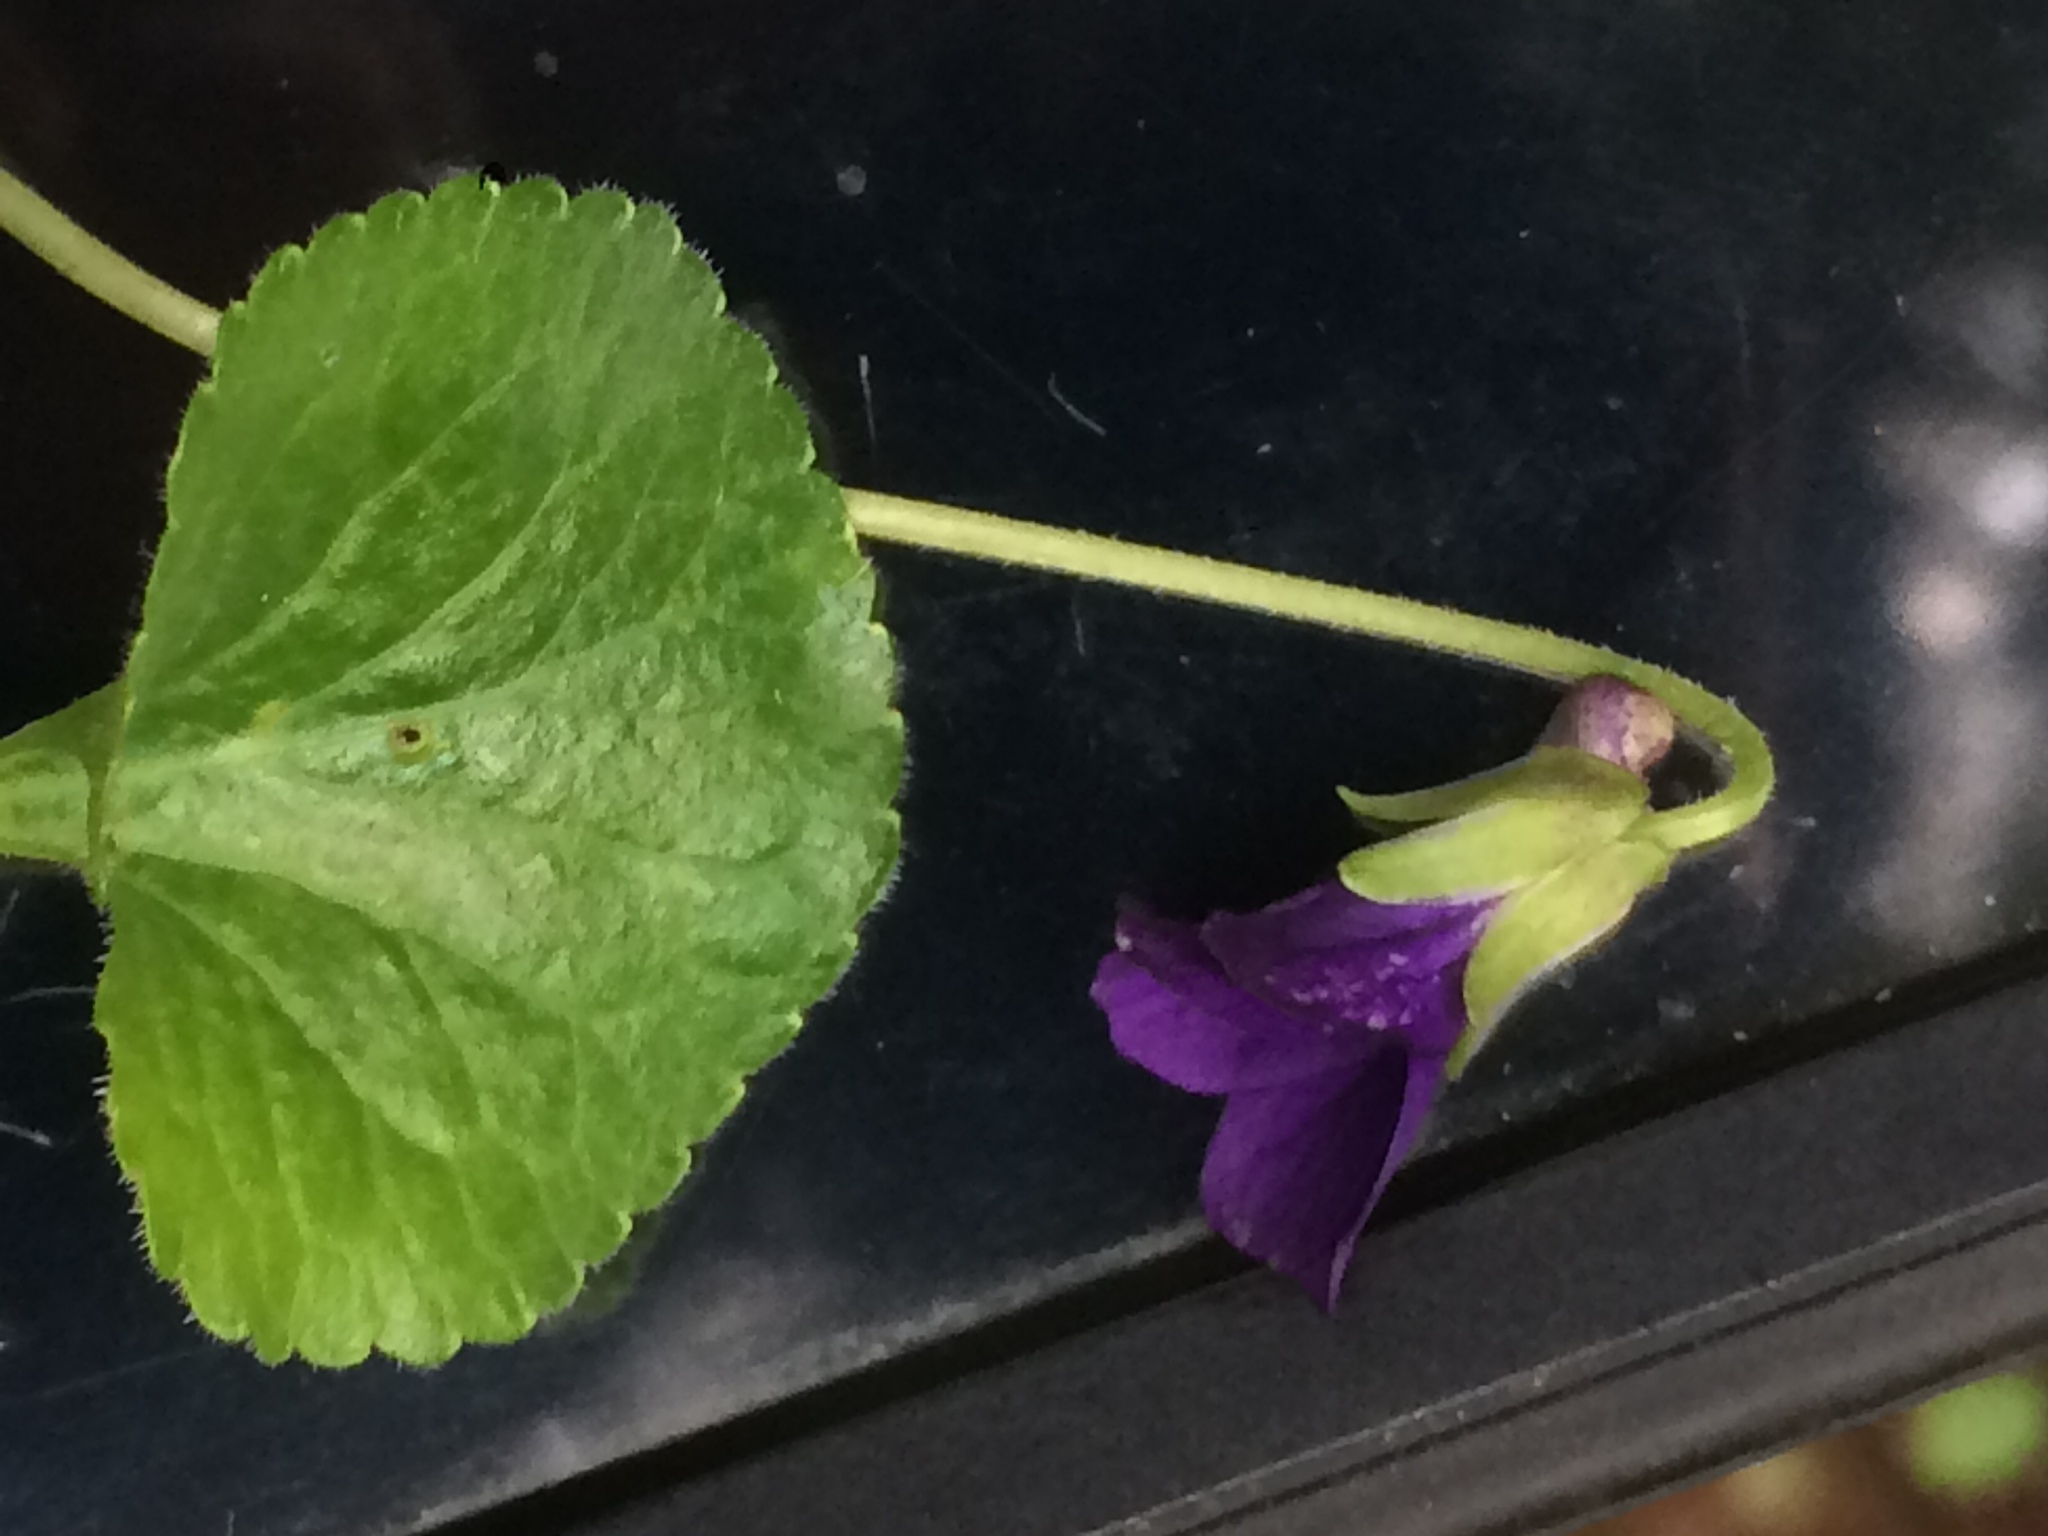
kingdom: Plantae
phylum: Tracheophyta
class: Magnoliopsida
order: Malpighiales
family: Violaceae
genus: Viola
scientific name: Viola odorata
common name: Sweet violet
